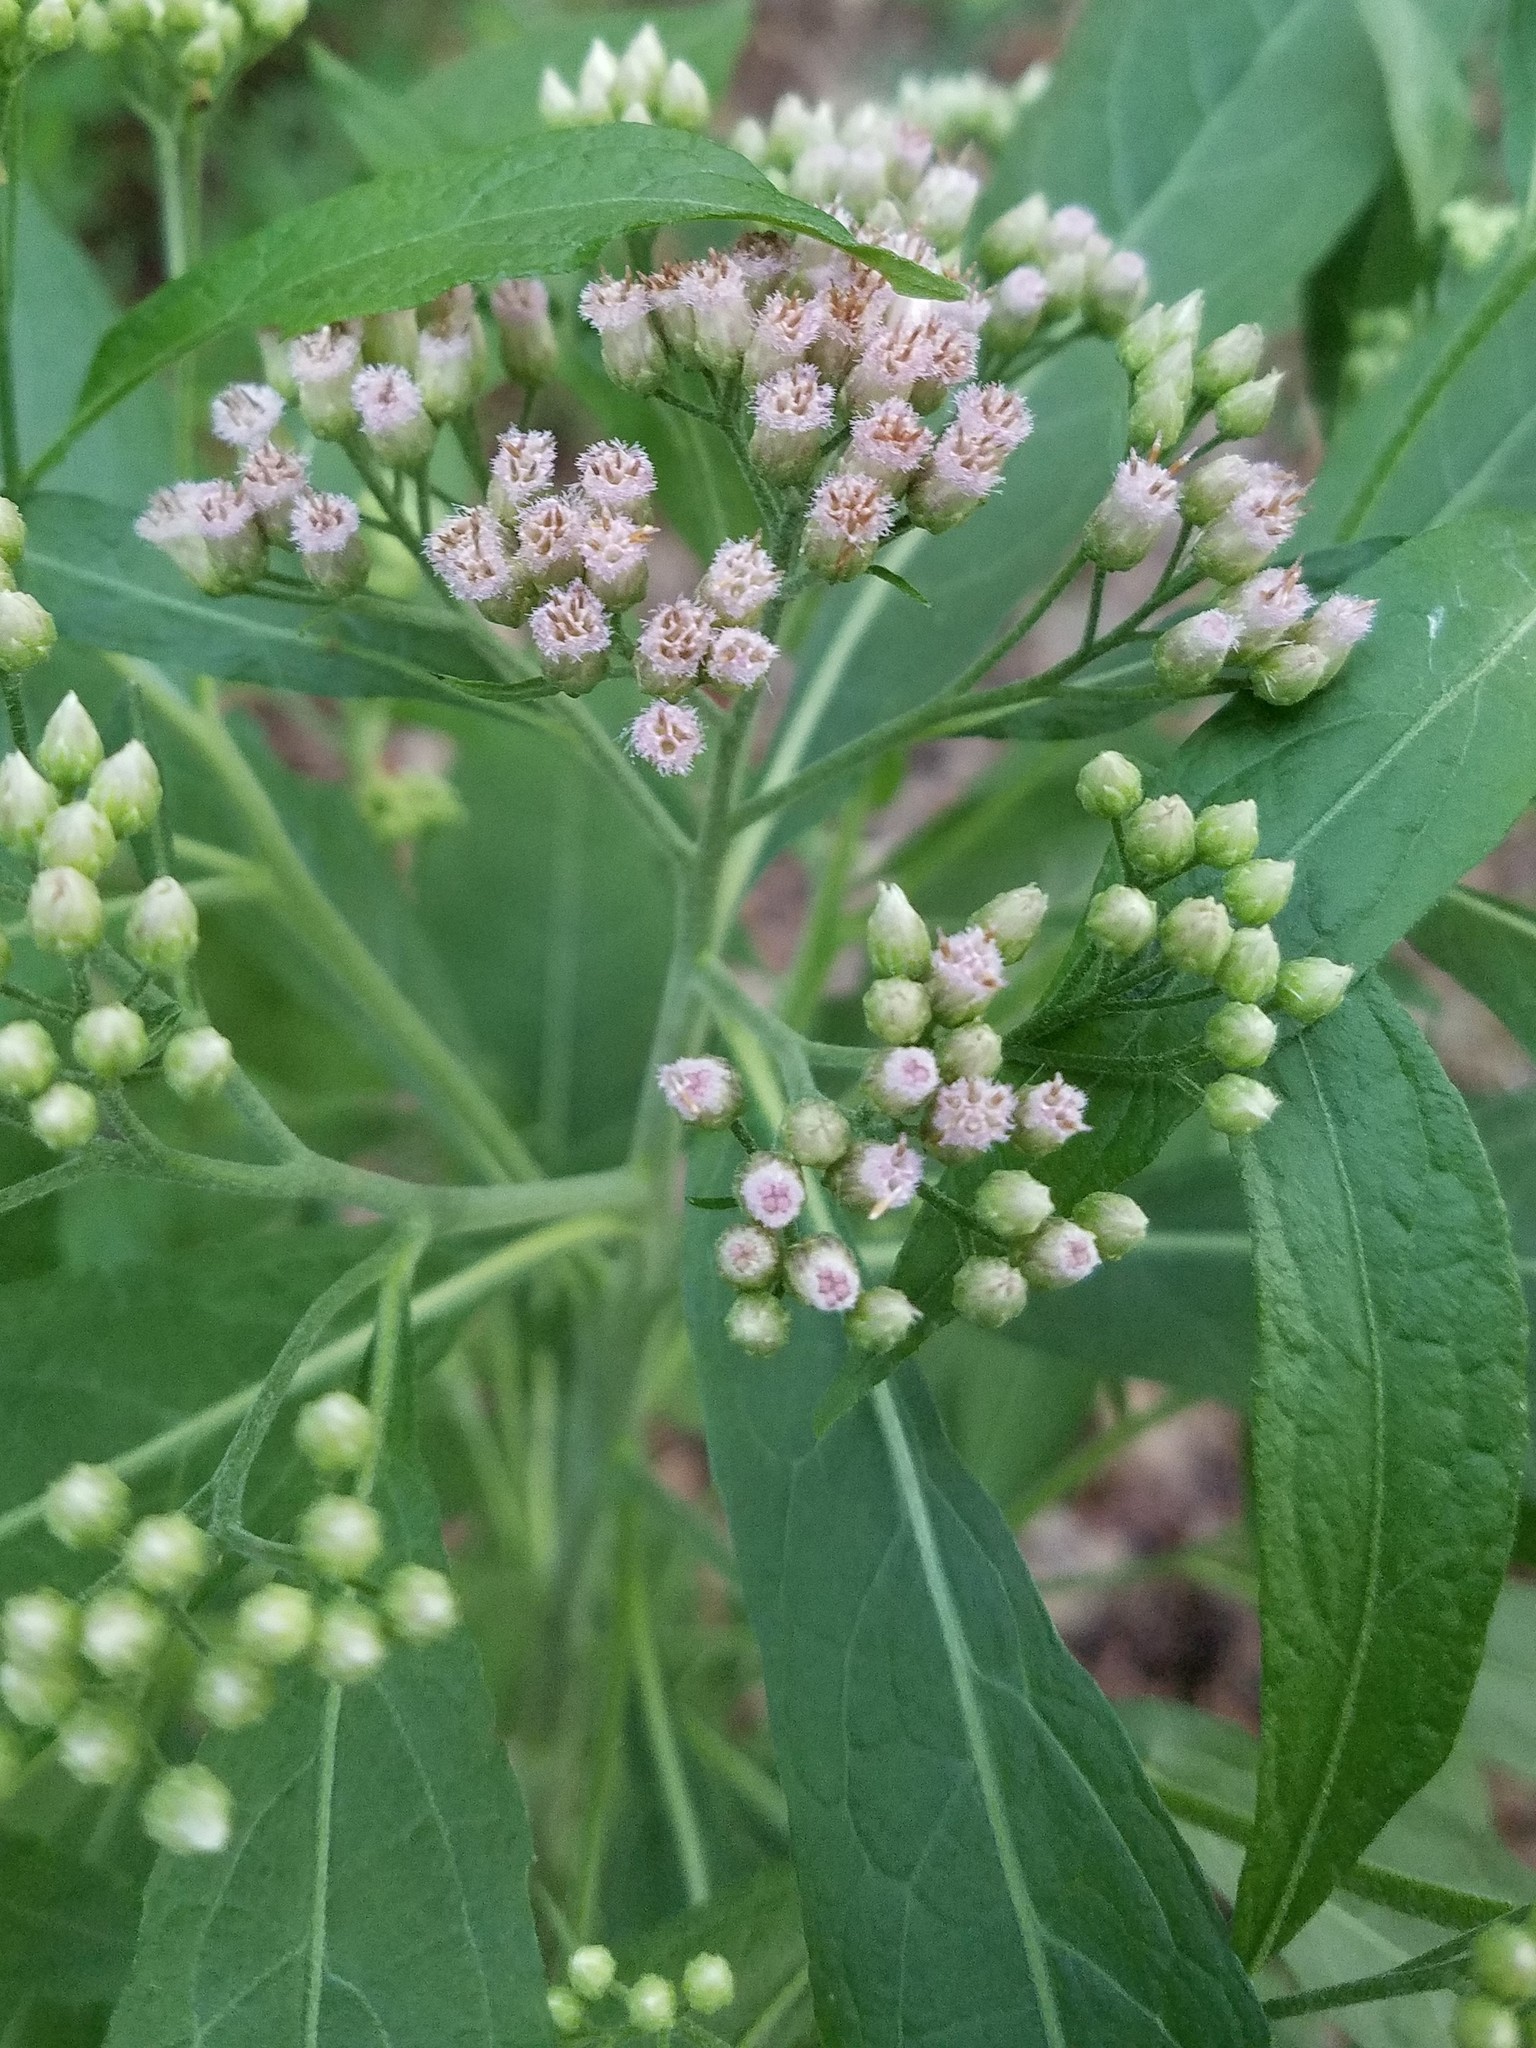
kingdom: Plantae
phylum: Tracheophyta
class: Magnoliopsida
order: Asterales
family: Asteraceae
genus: Pluchea
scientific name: Pluchea camphorata
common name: Camphor pluchea
